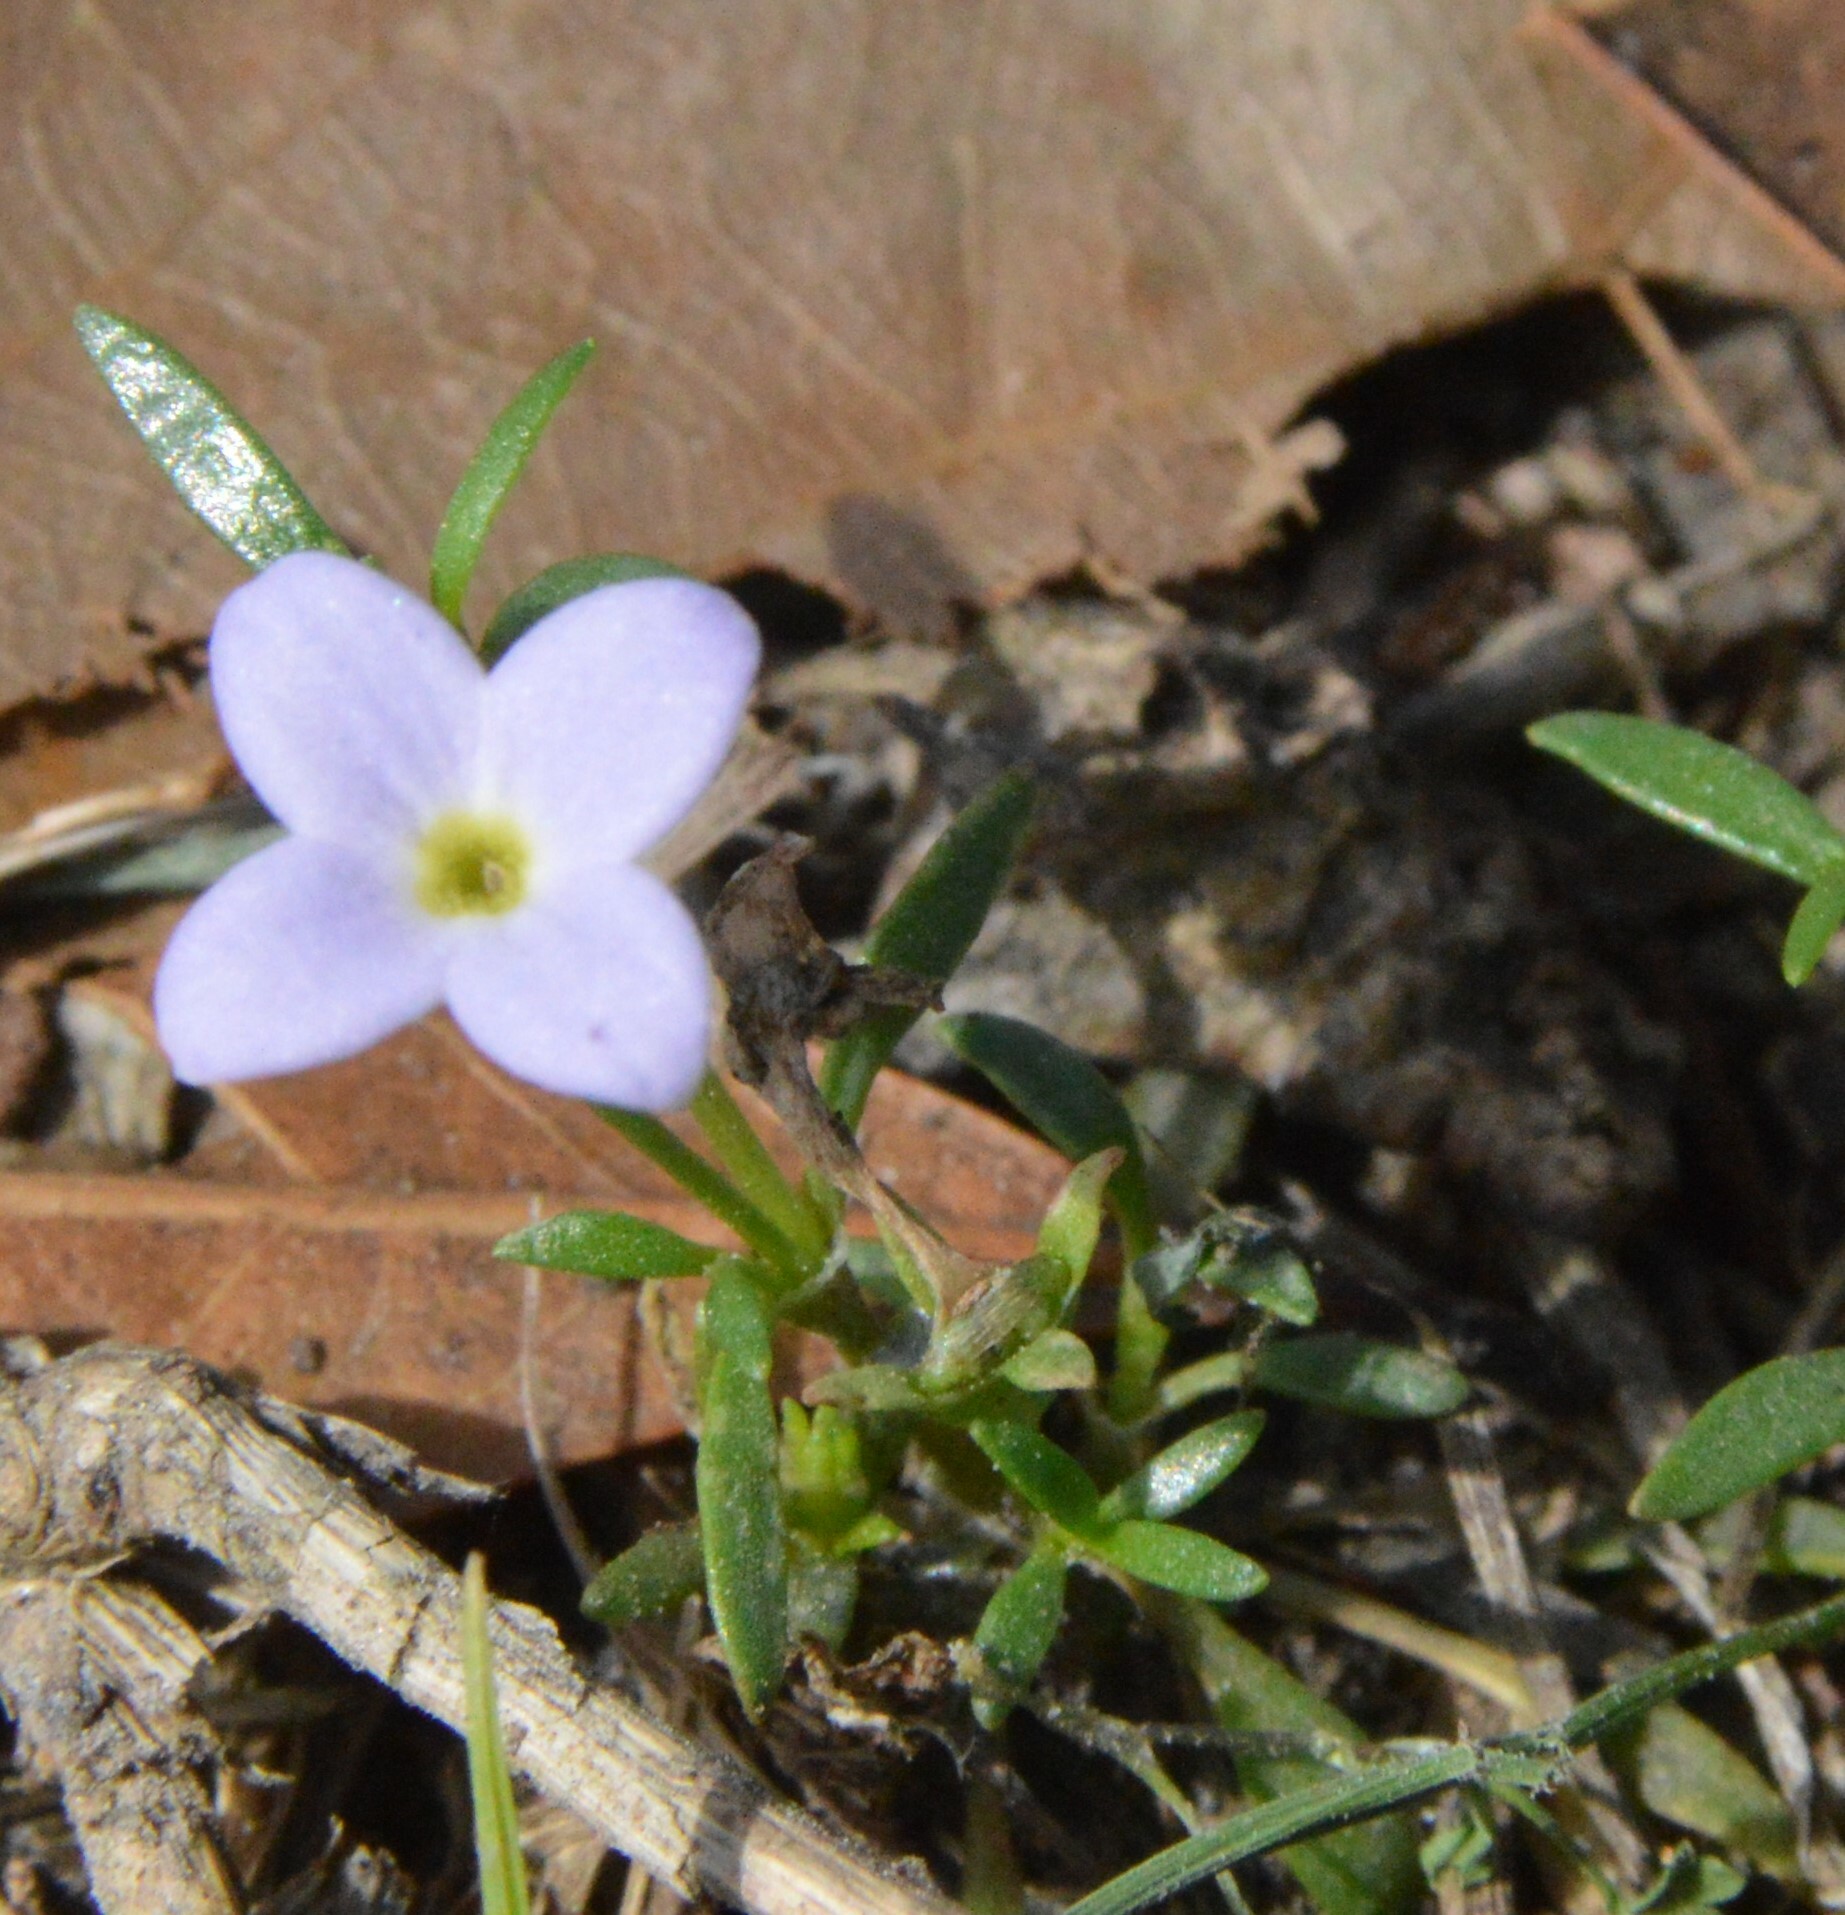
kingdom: Plantae
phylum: Tracheophyta
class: Magnoliopsida
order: Gentianales
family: Rubiaceae
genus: Houstonia
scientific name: Houstonia rosea
